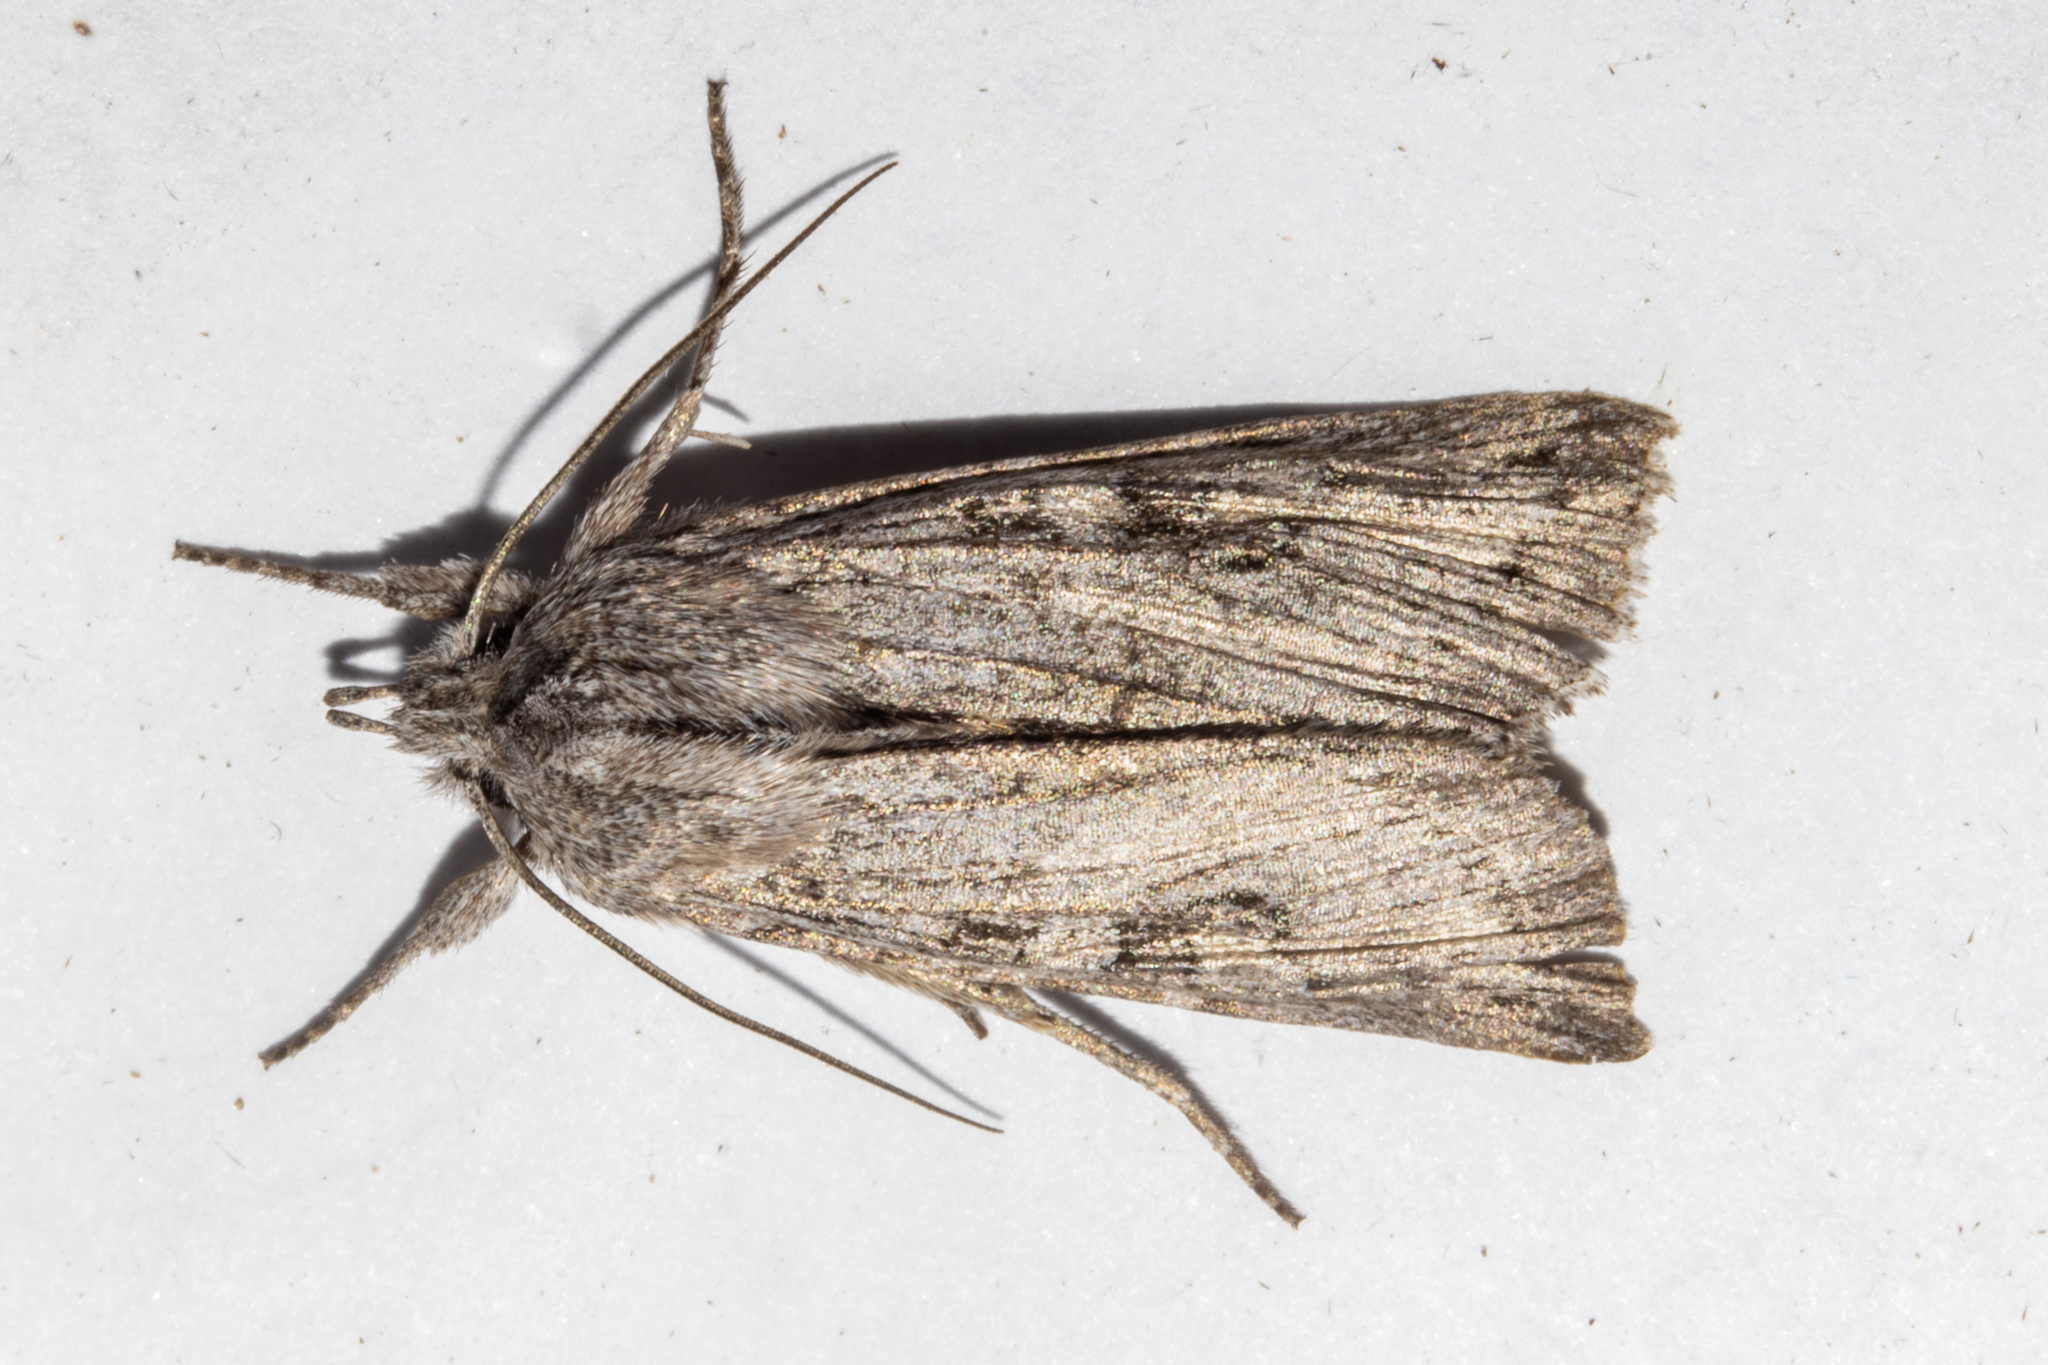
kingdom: Animalia
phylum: Arthropoda
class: Insecta
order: Lepidoptera
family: Noctuidae
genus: Physetica
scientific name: Physetica phricias
